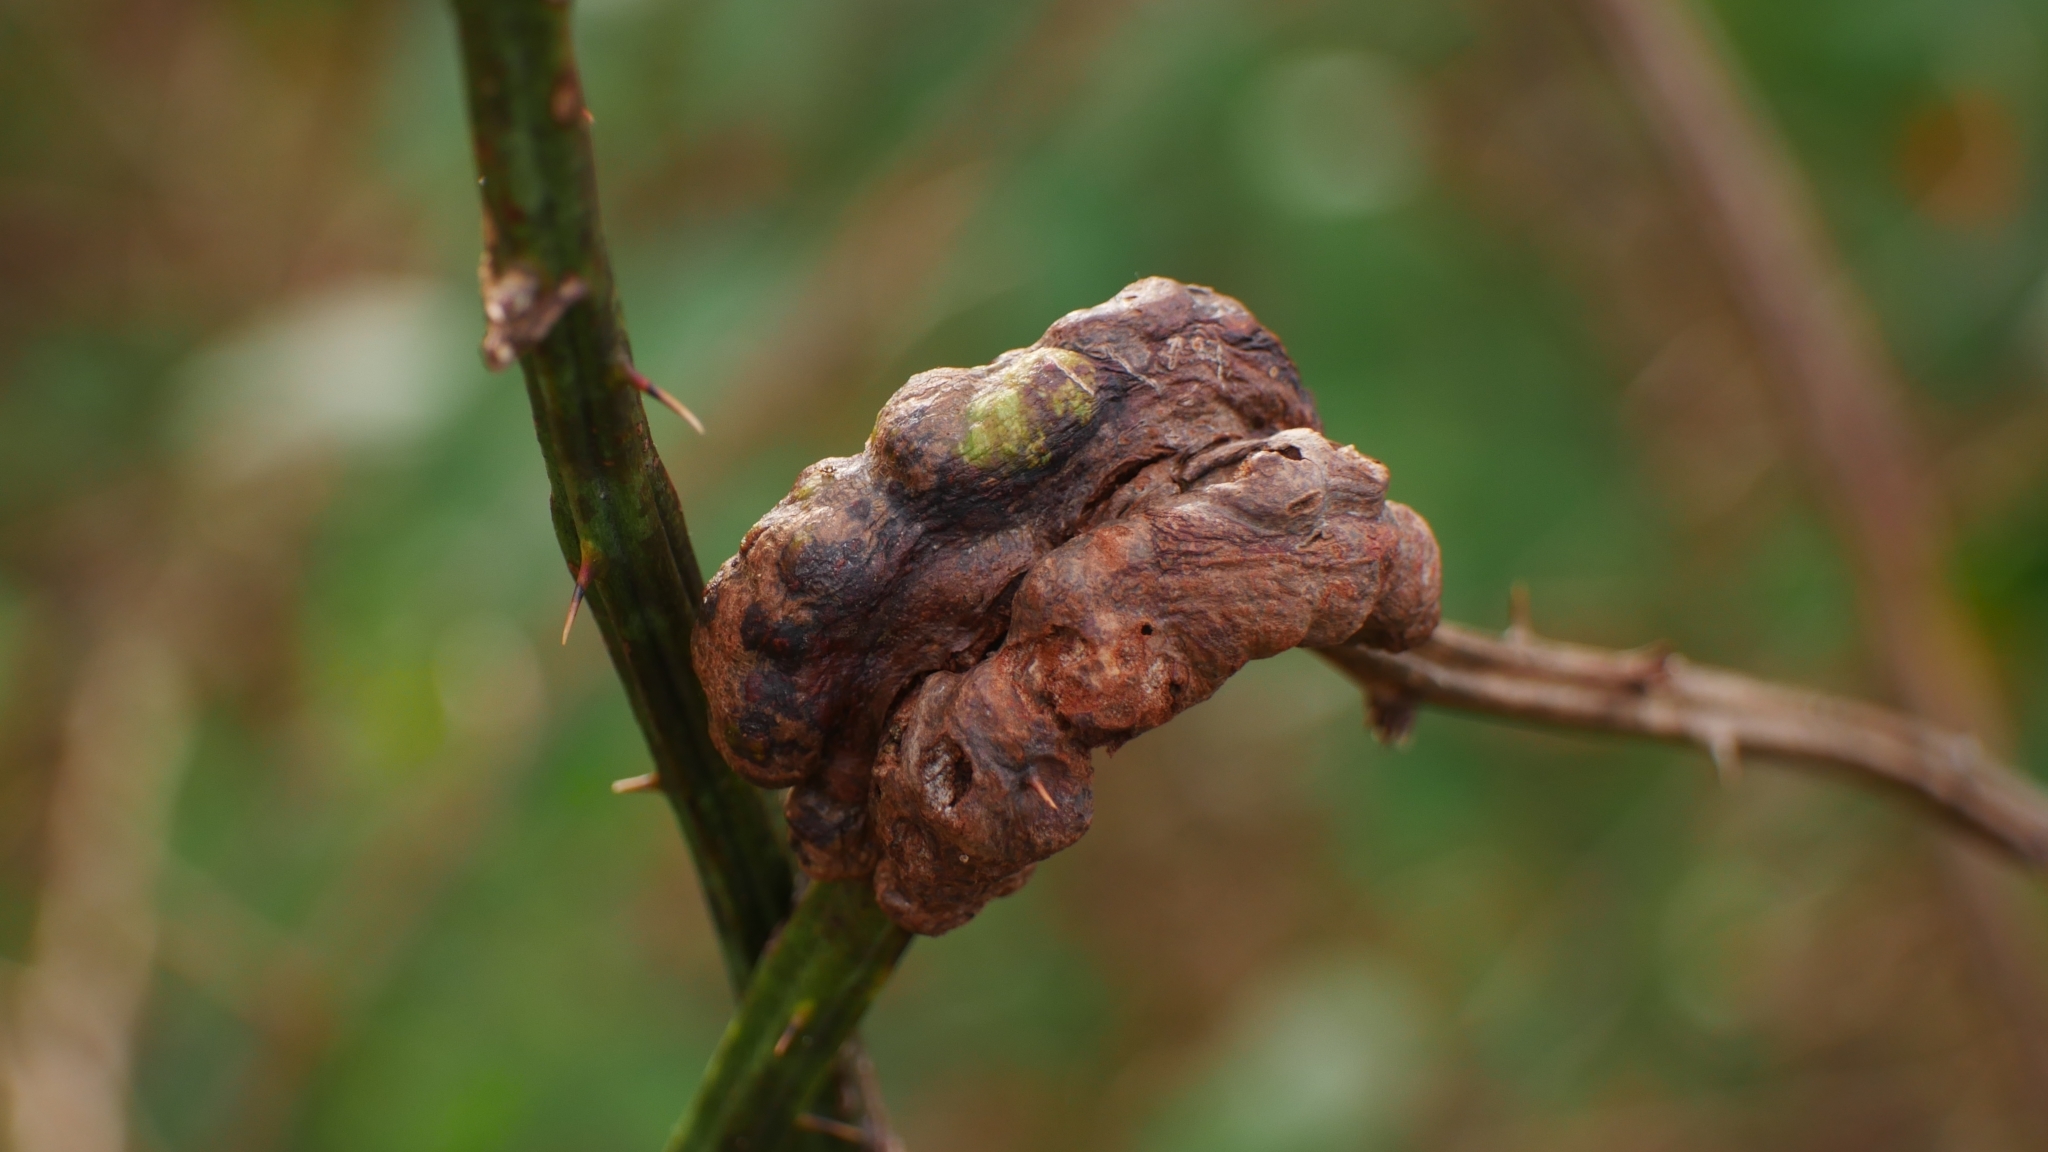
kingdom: Animalia
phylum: Arthropoda
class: Insecta
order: Hymenoptera
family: Cynipidae
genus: Diastrophus
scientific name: Diastrophus
